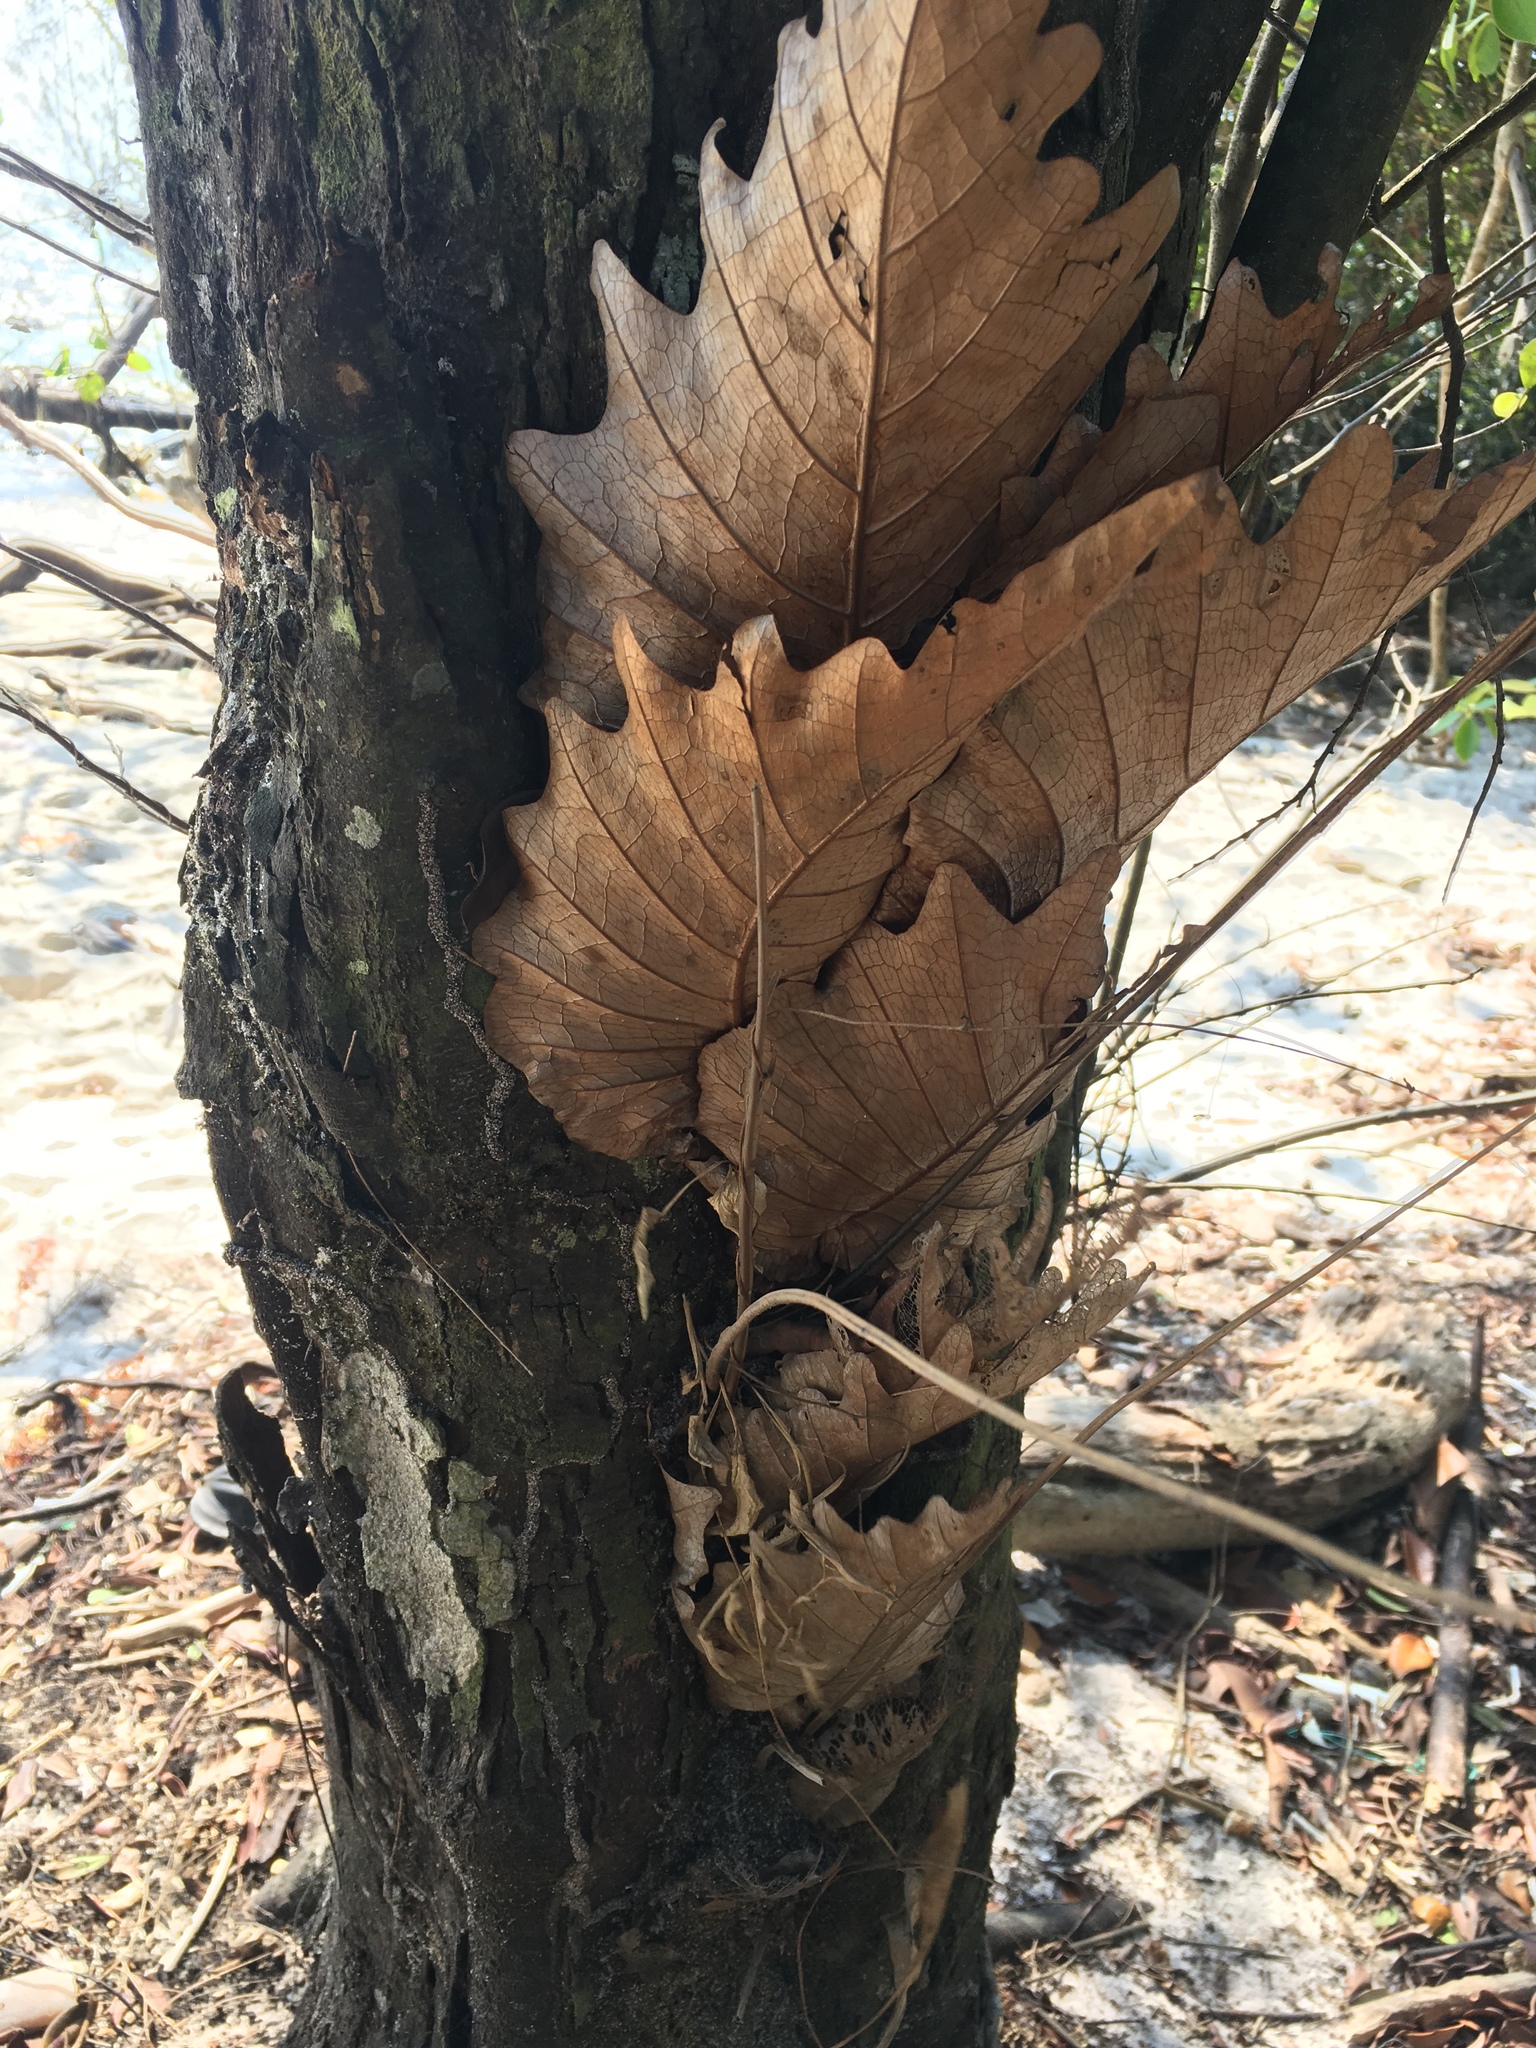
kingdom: Plantae
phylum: Tracheophyta
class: Polypodiopsida
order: Polypodiales
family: Polypodiaceae
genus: Drynaria
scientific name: Drynaria quercifolia
